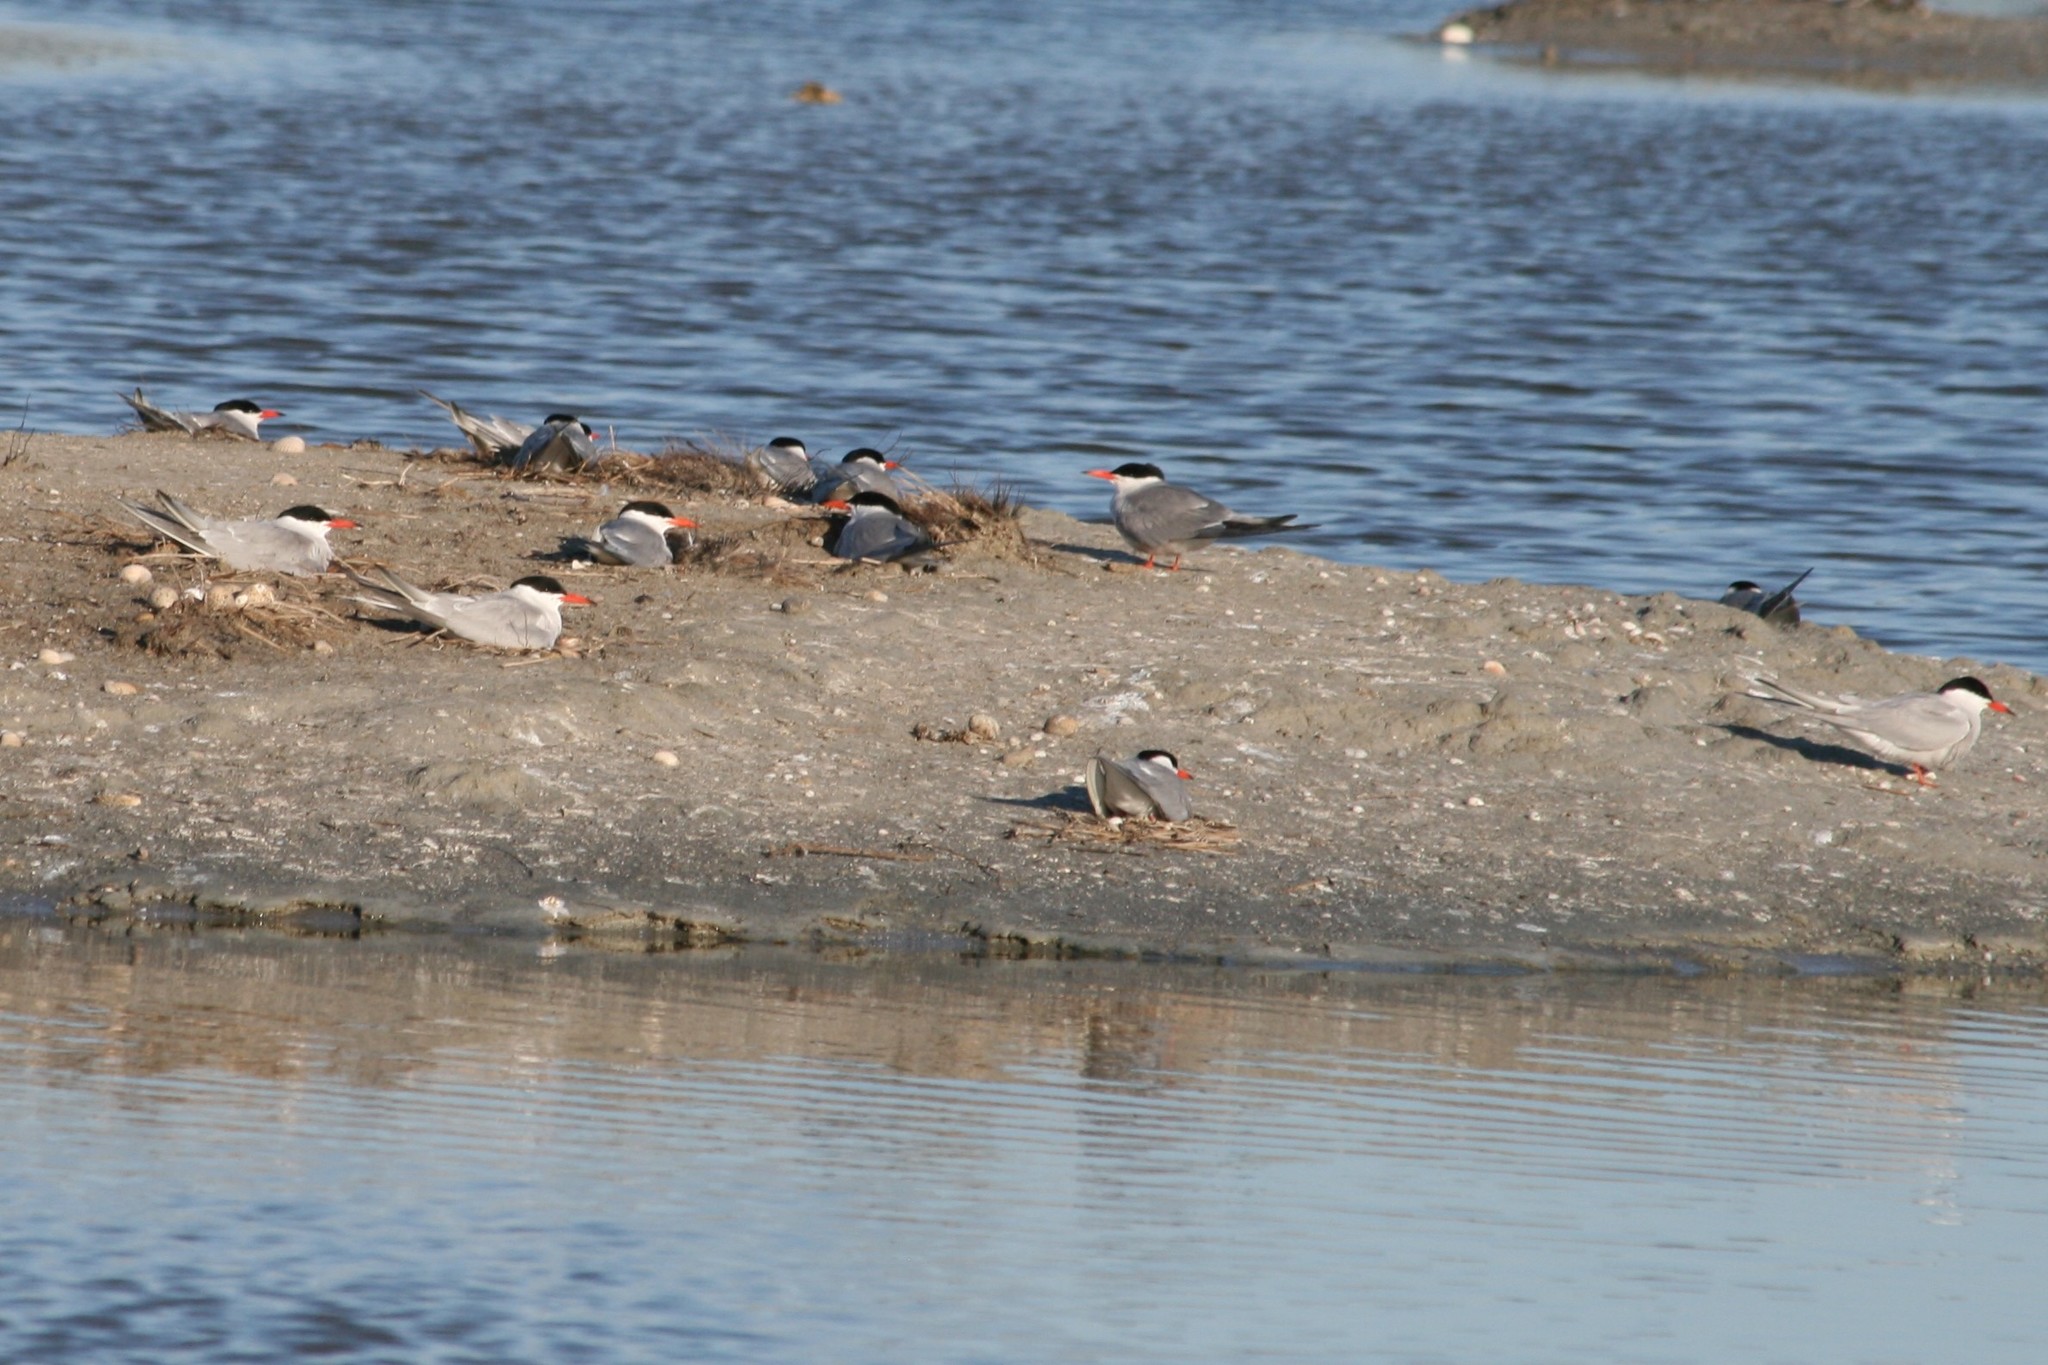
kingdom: Animalia
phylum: Chordata
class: Aves
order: Charadriiformes
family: Laridae
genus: Sterna
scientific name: Sterna hirundo
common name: Common tern
